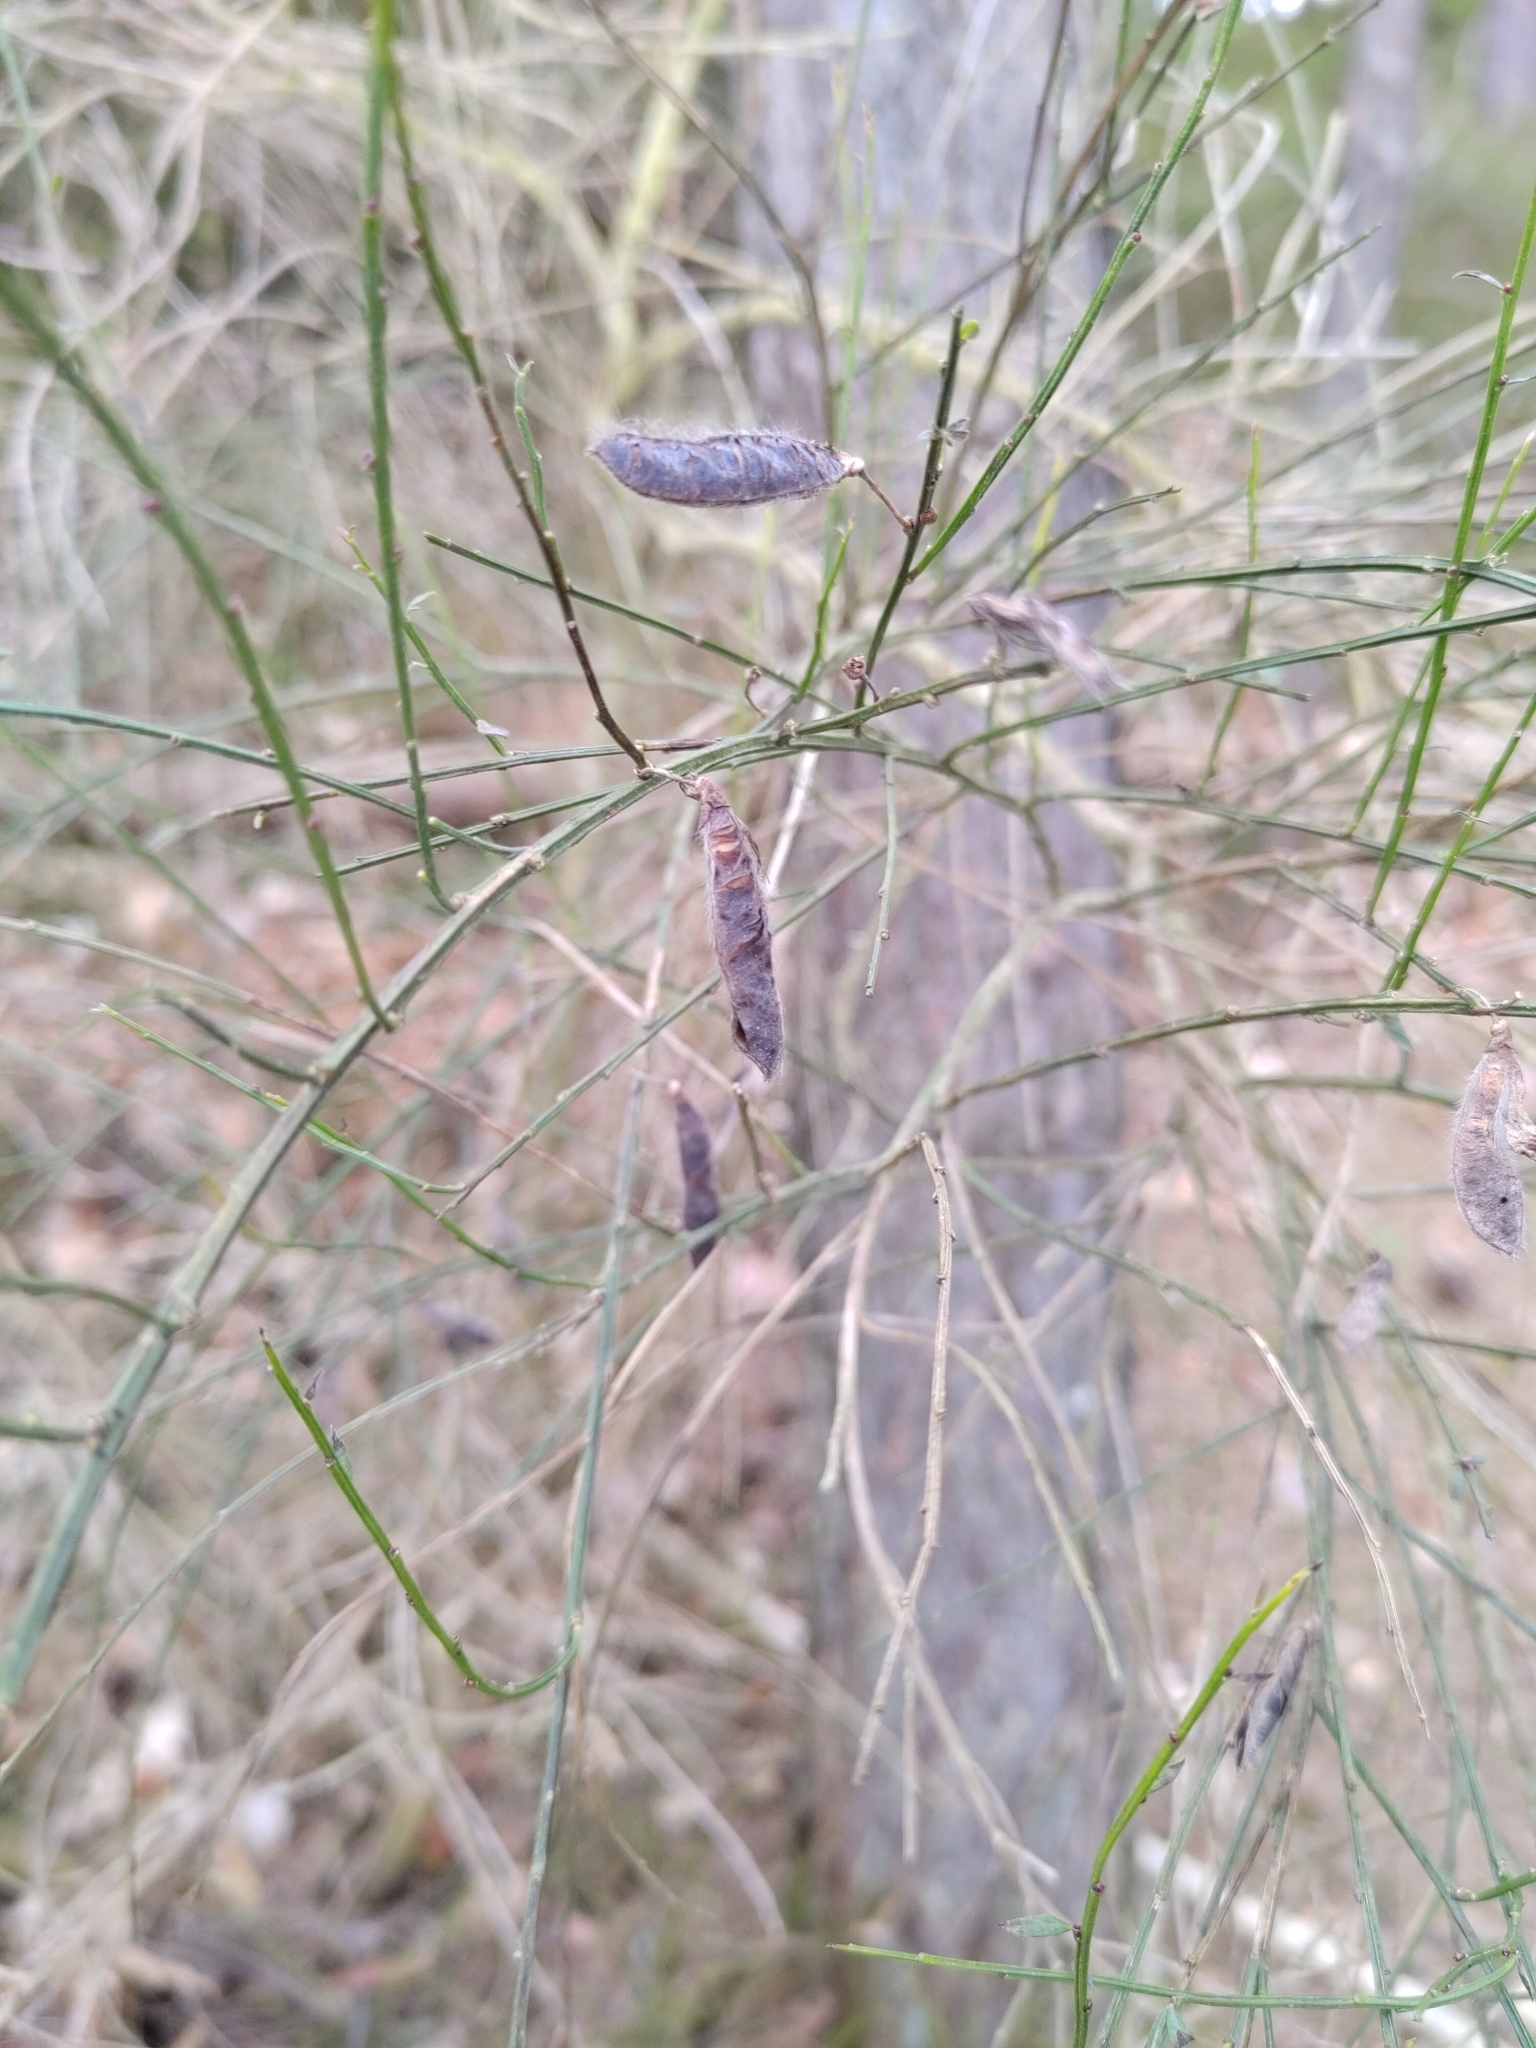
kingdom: Plantae
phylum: Tracheophyta
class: Magnoliopsida
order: Fabales
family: Fabaceae
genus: Cytisus
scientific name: Cytisus scoparius
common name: Scotch broom
